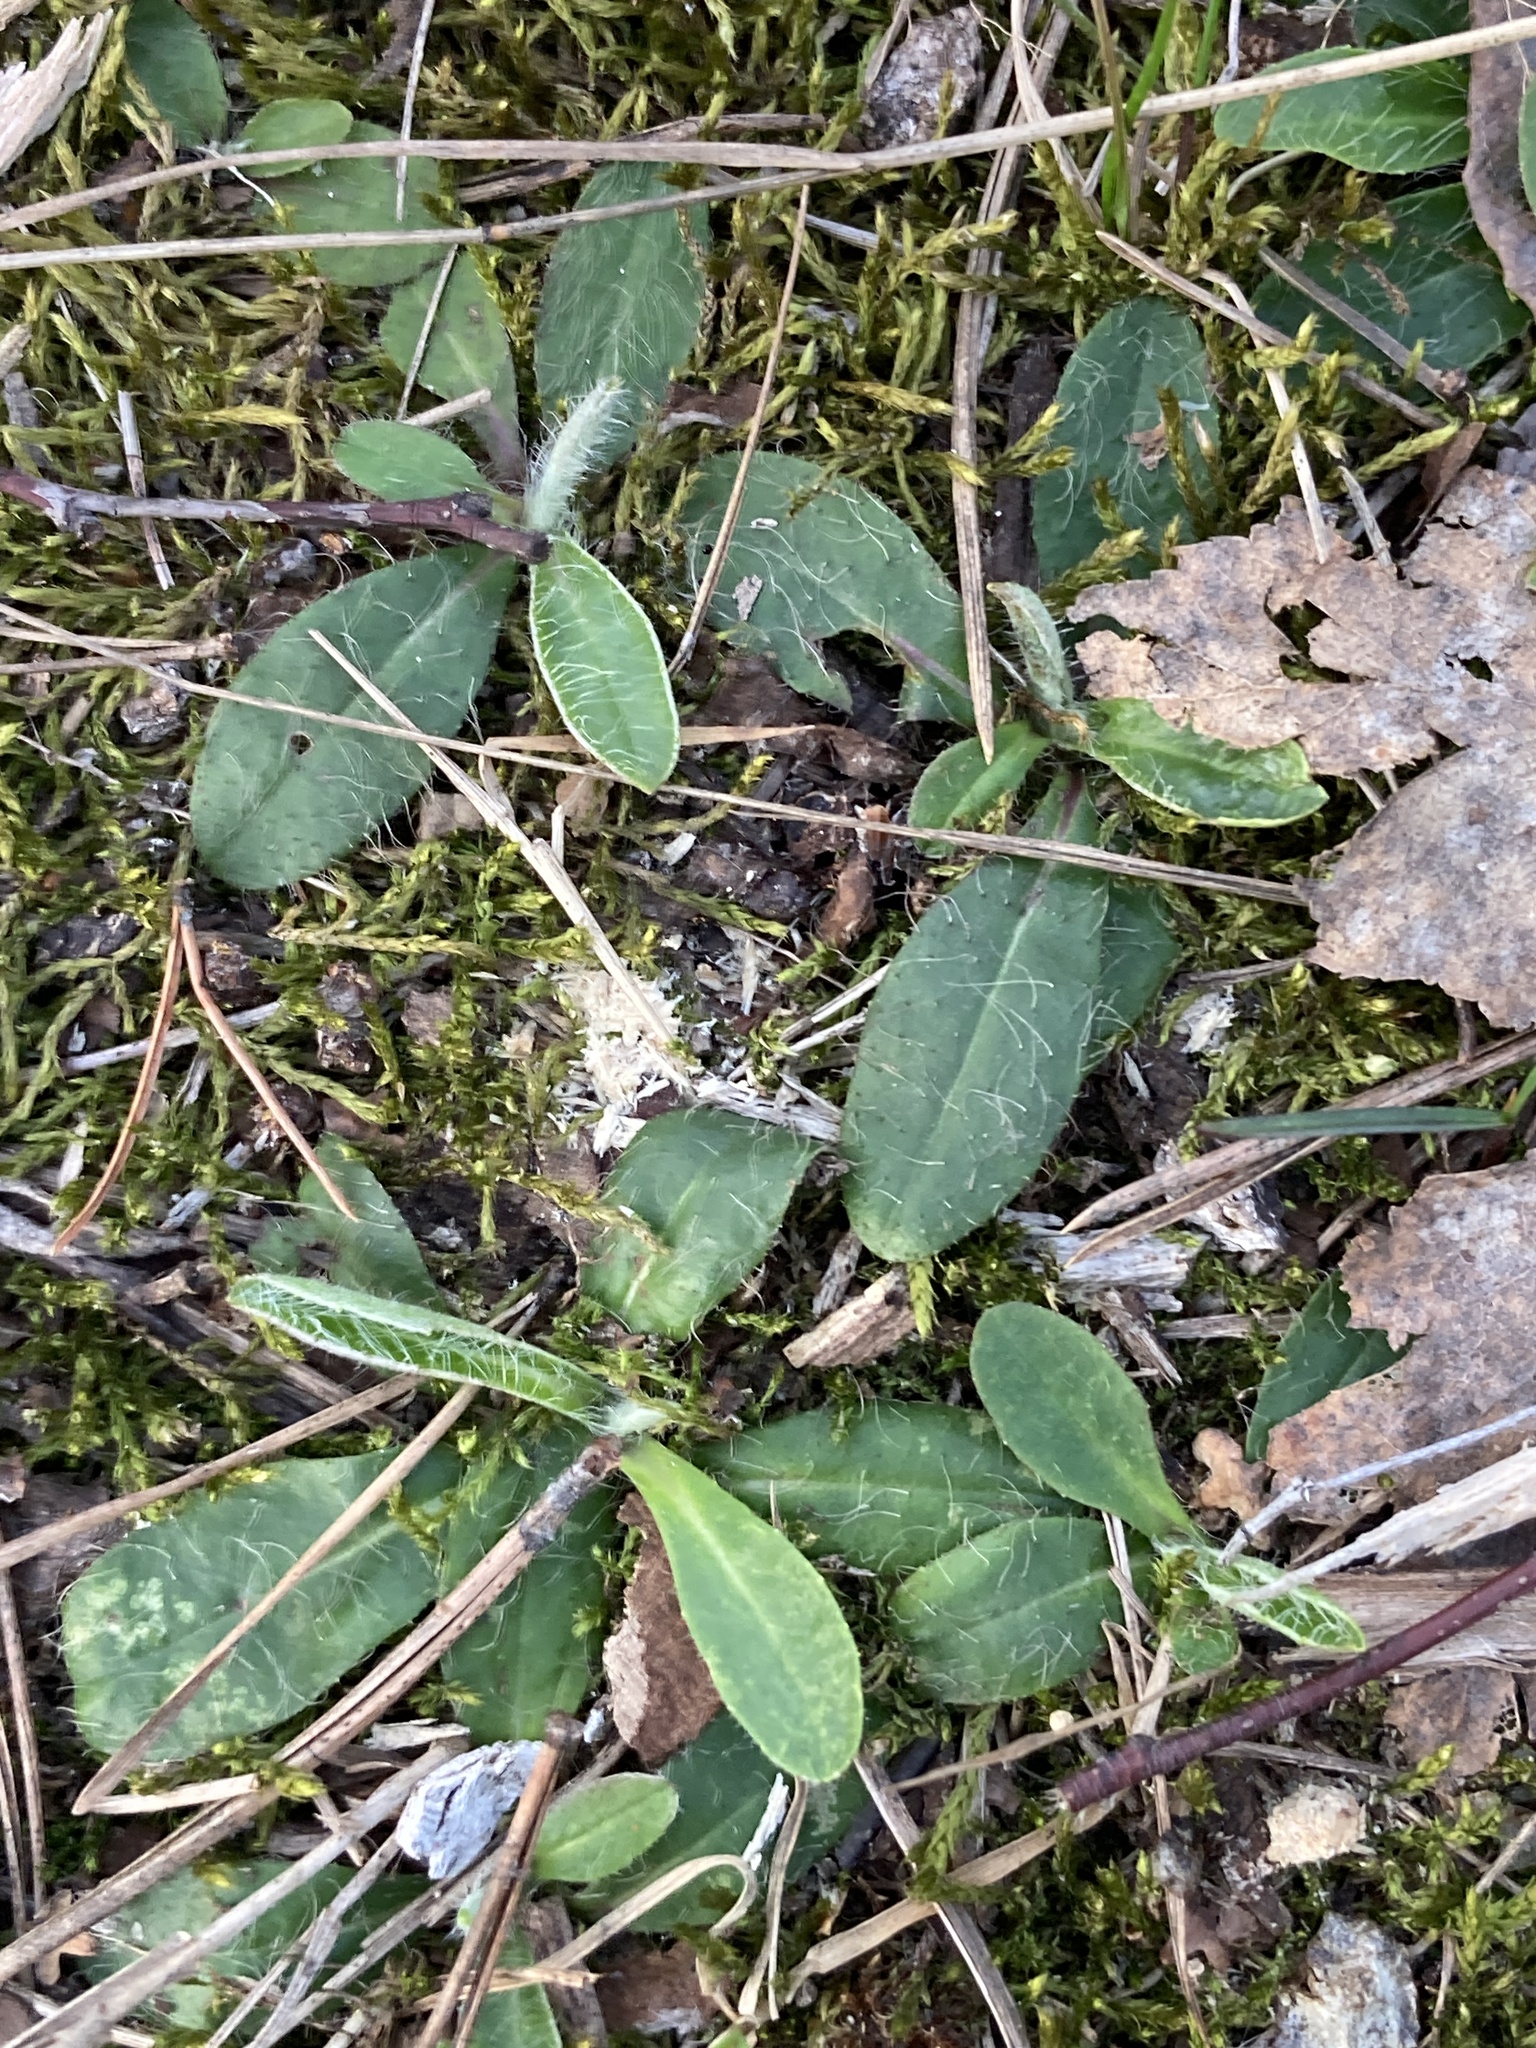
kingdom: Plantae
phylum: Tracheophyta
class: Magnoliopsida
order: Asterales
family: Asteraceae
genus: Pilosella
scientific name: Pilosella officinarum
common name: Mouse-ear hawkweed
